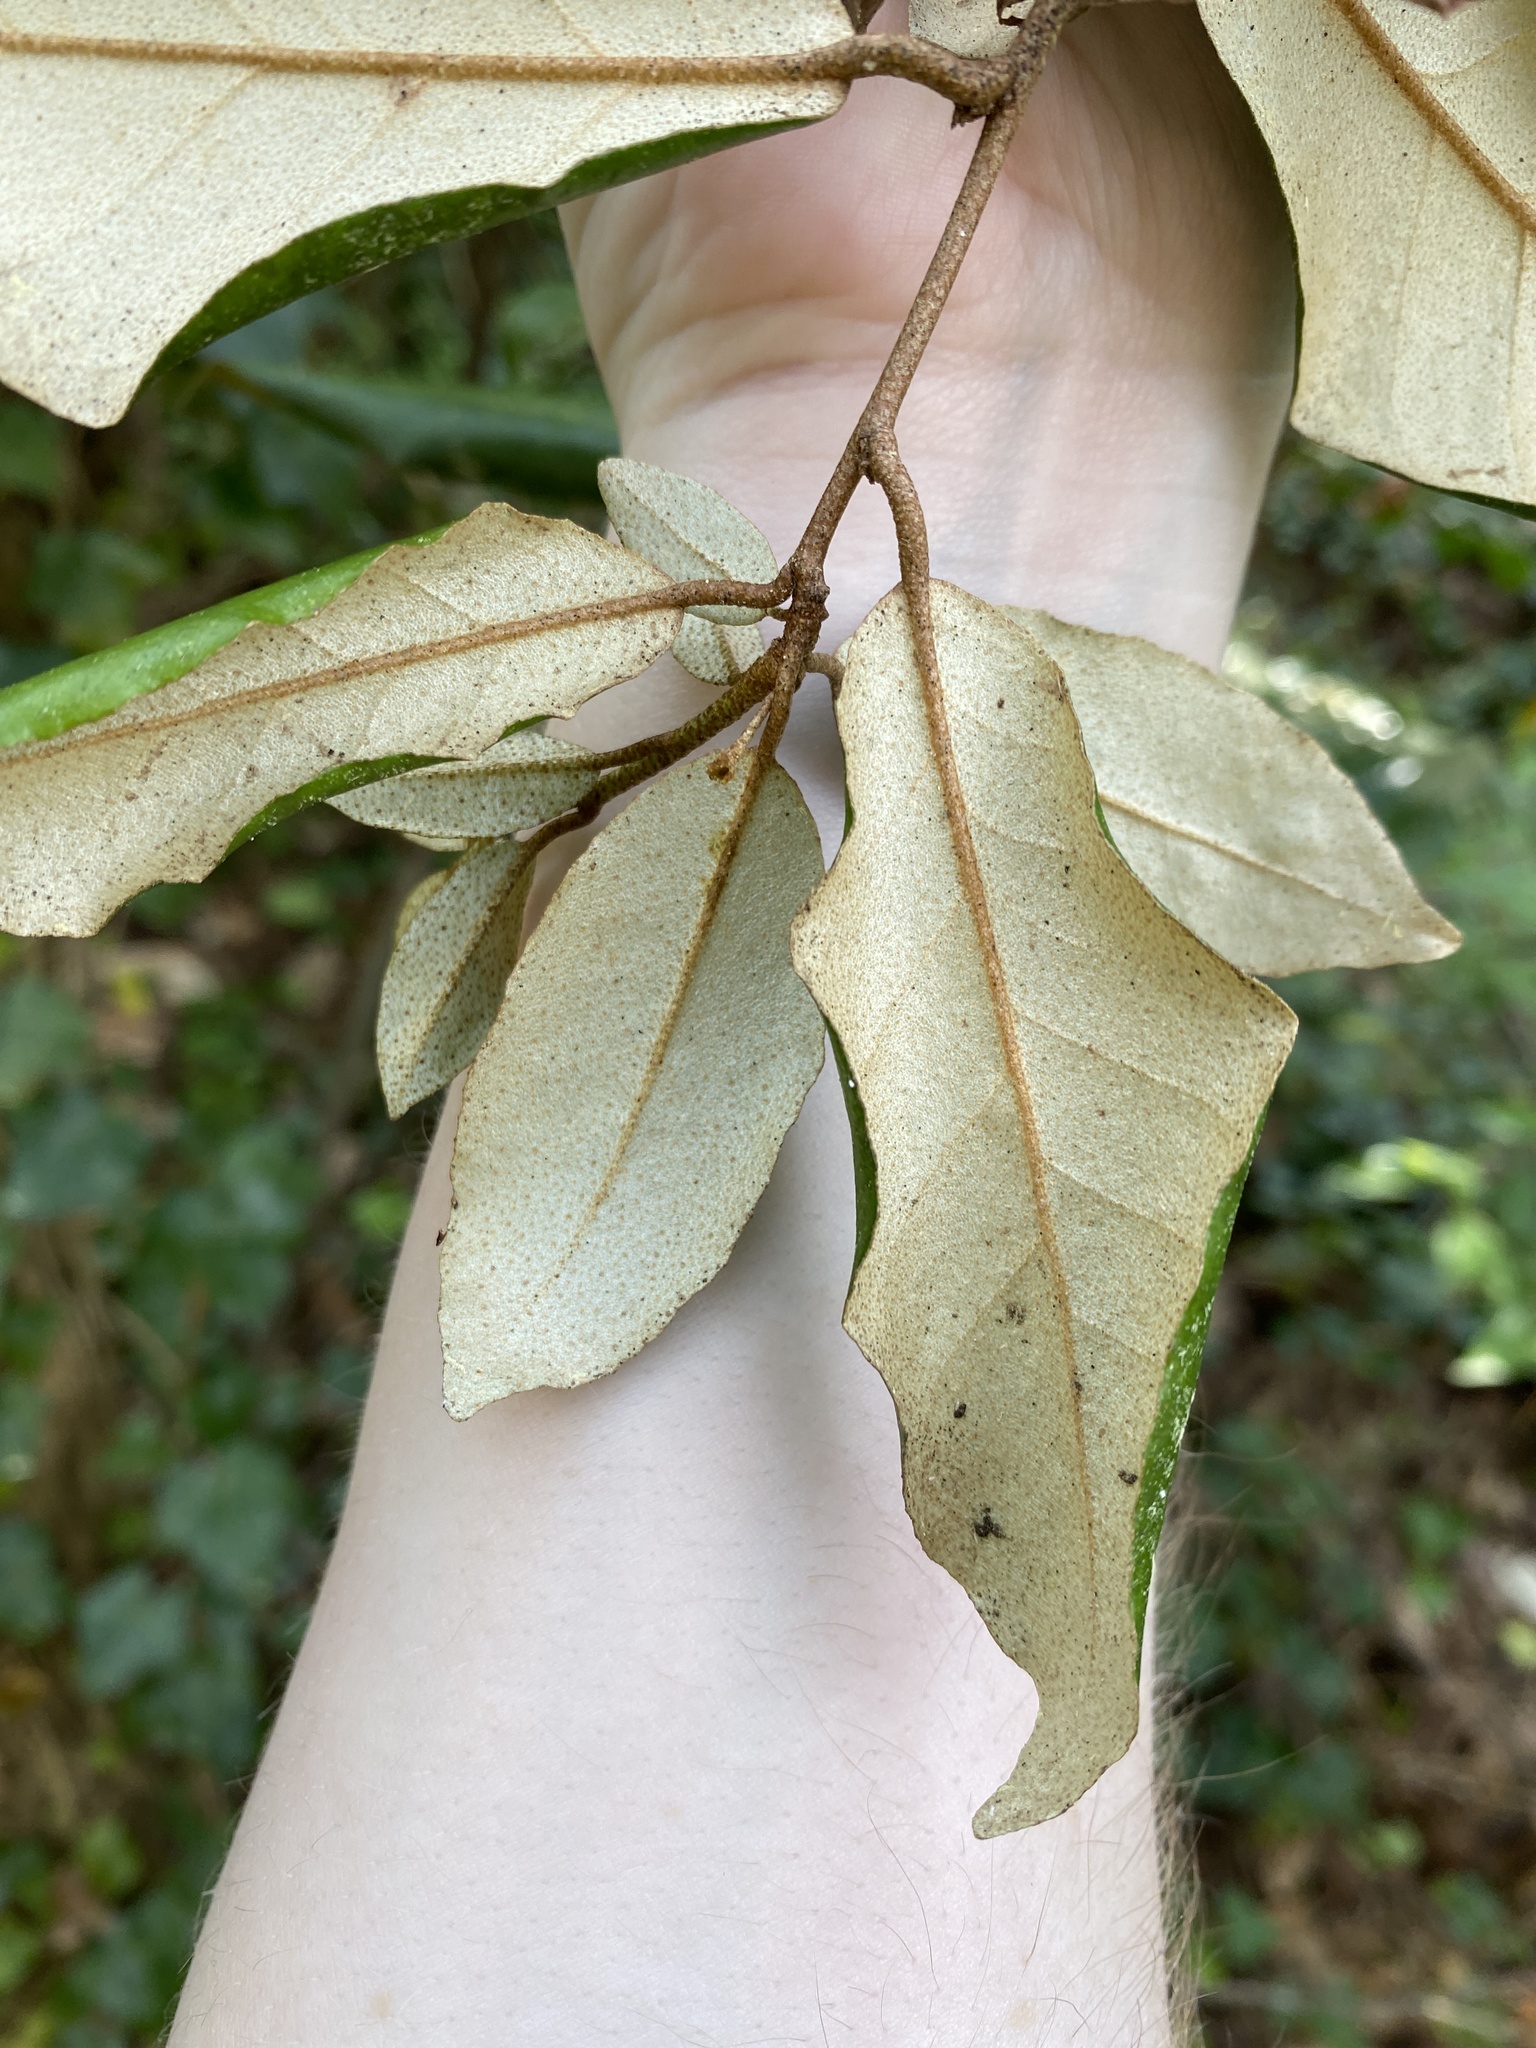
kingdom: Plantae
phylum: Tracheophyta
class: Magnoliopsida
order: Rosales
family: Elaeagnaceae
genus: Elaeagnus
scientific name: Elaeagnus pungens
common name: Spiny oleaster
